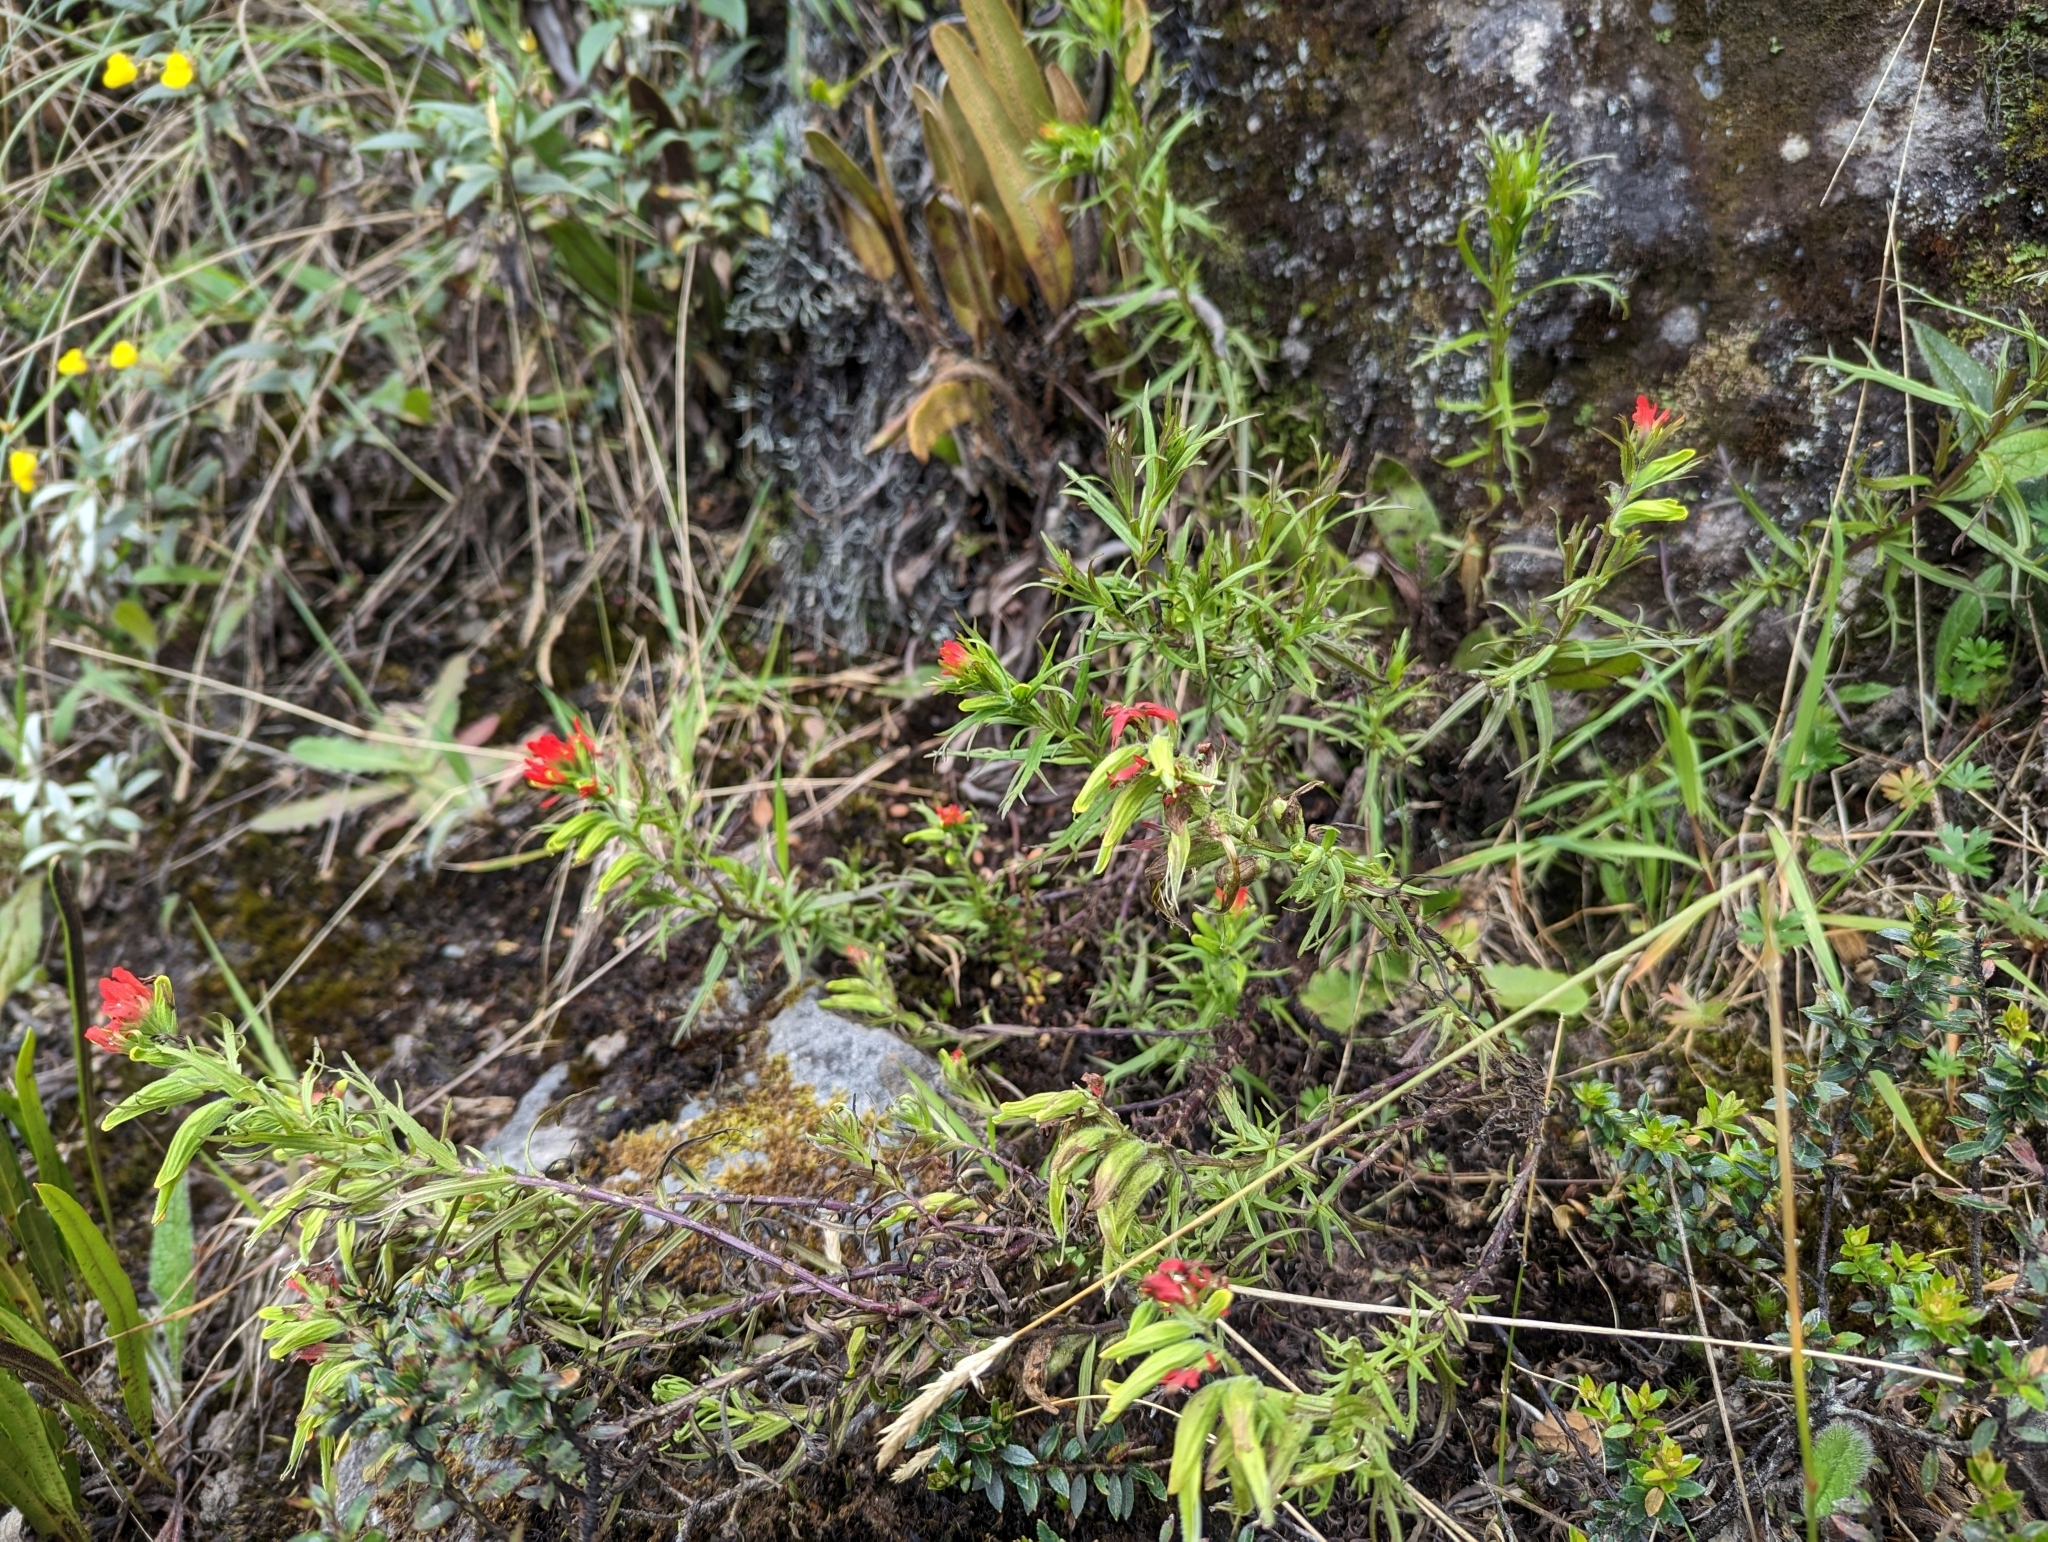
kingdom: Plantae
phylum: Tracheophyta
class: Magnoliopsida
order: Lamiales
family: Orobanchaceae
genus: Castilleja
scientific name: Castilleja fissifolia
